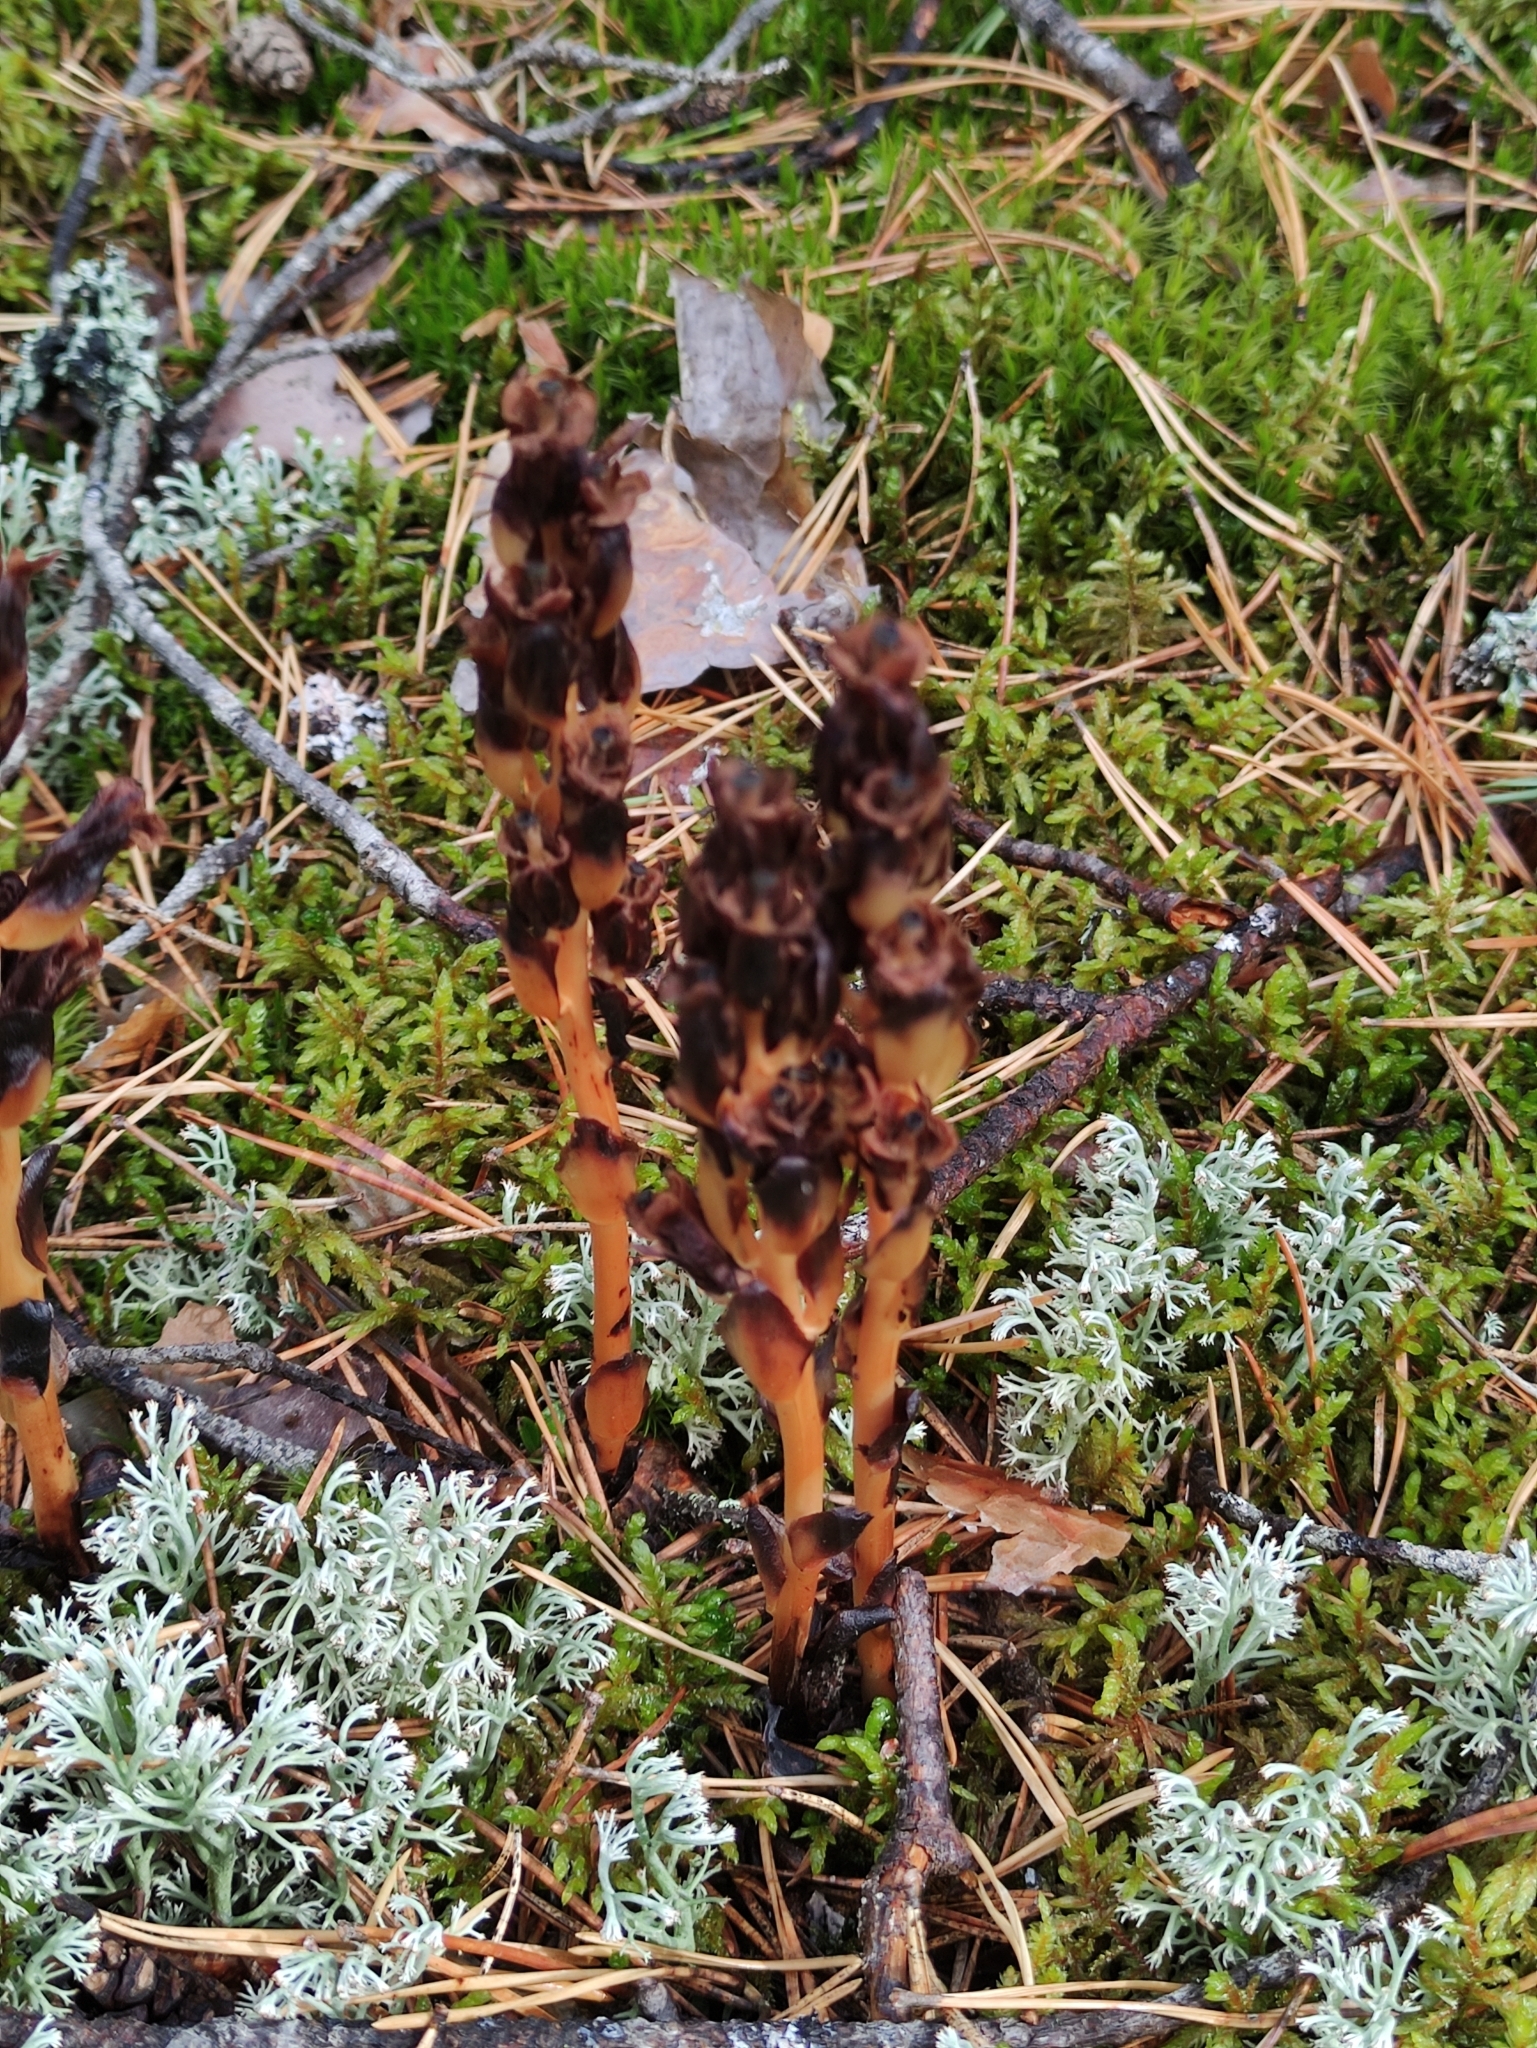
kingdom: Plantae
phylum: Tracheophyta
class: Magnoliopsida
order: Ericales
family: Ericaceae
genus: Hypopitys
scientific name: Hypopitys monotropa
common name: Yellow bird's-nest
